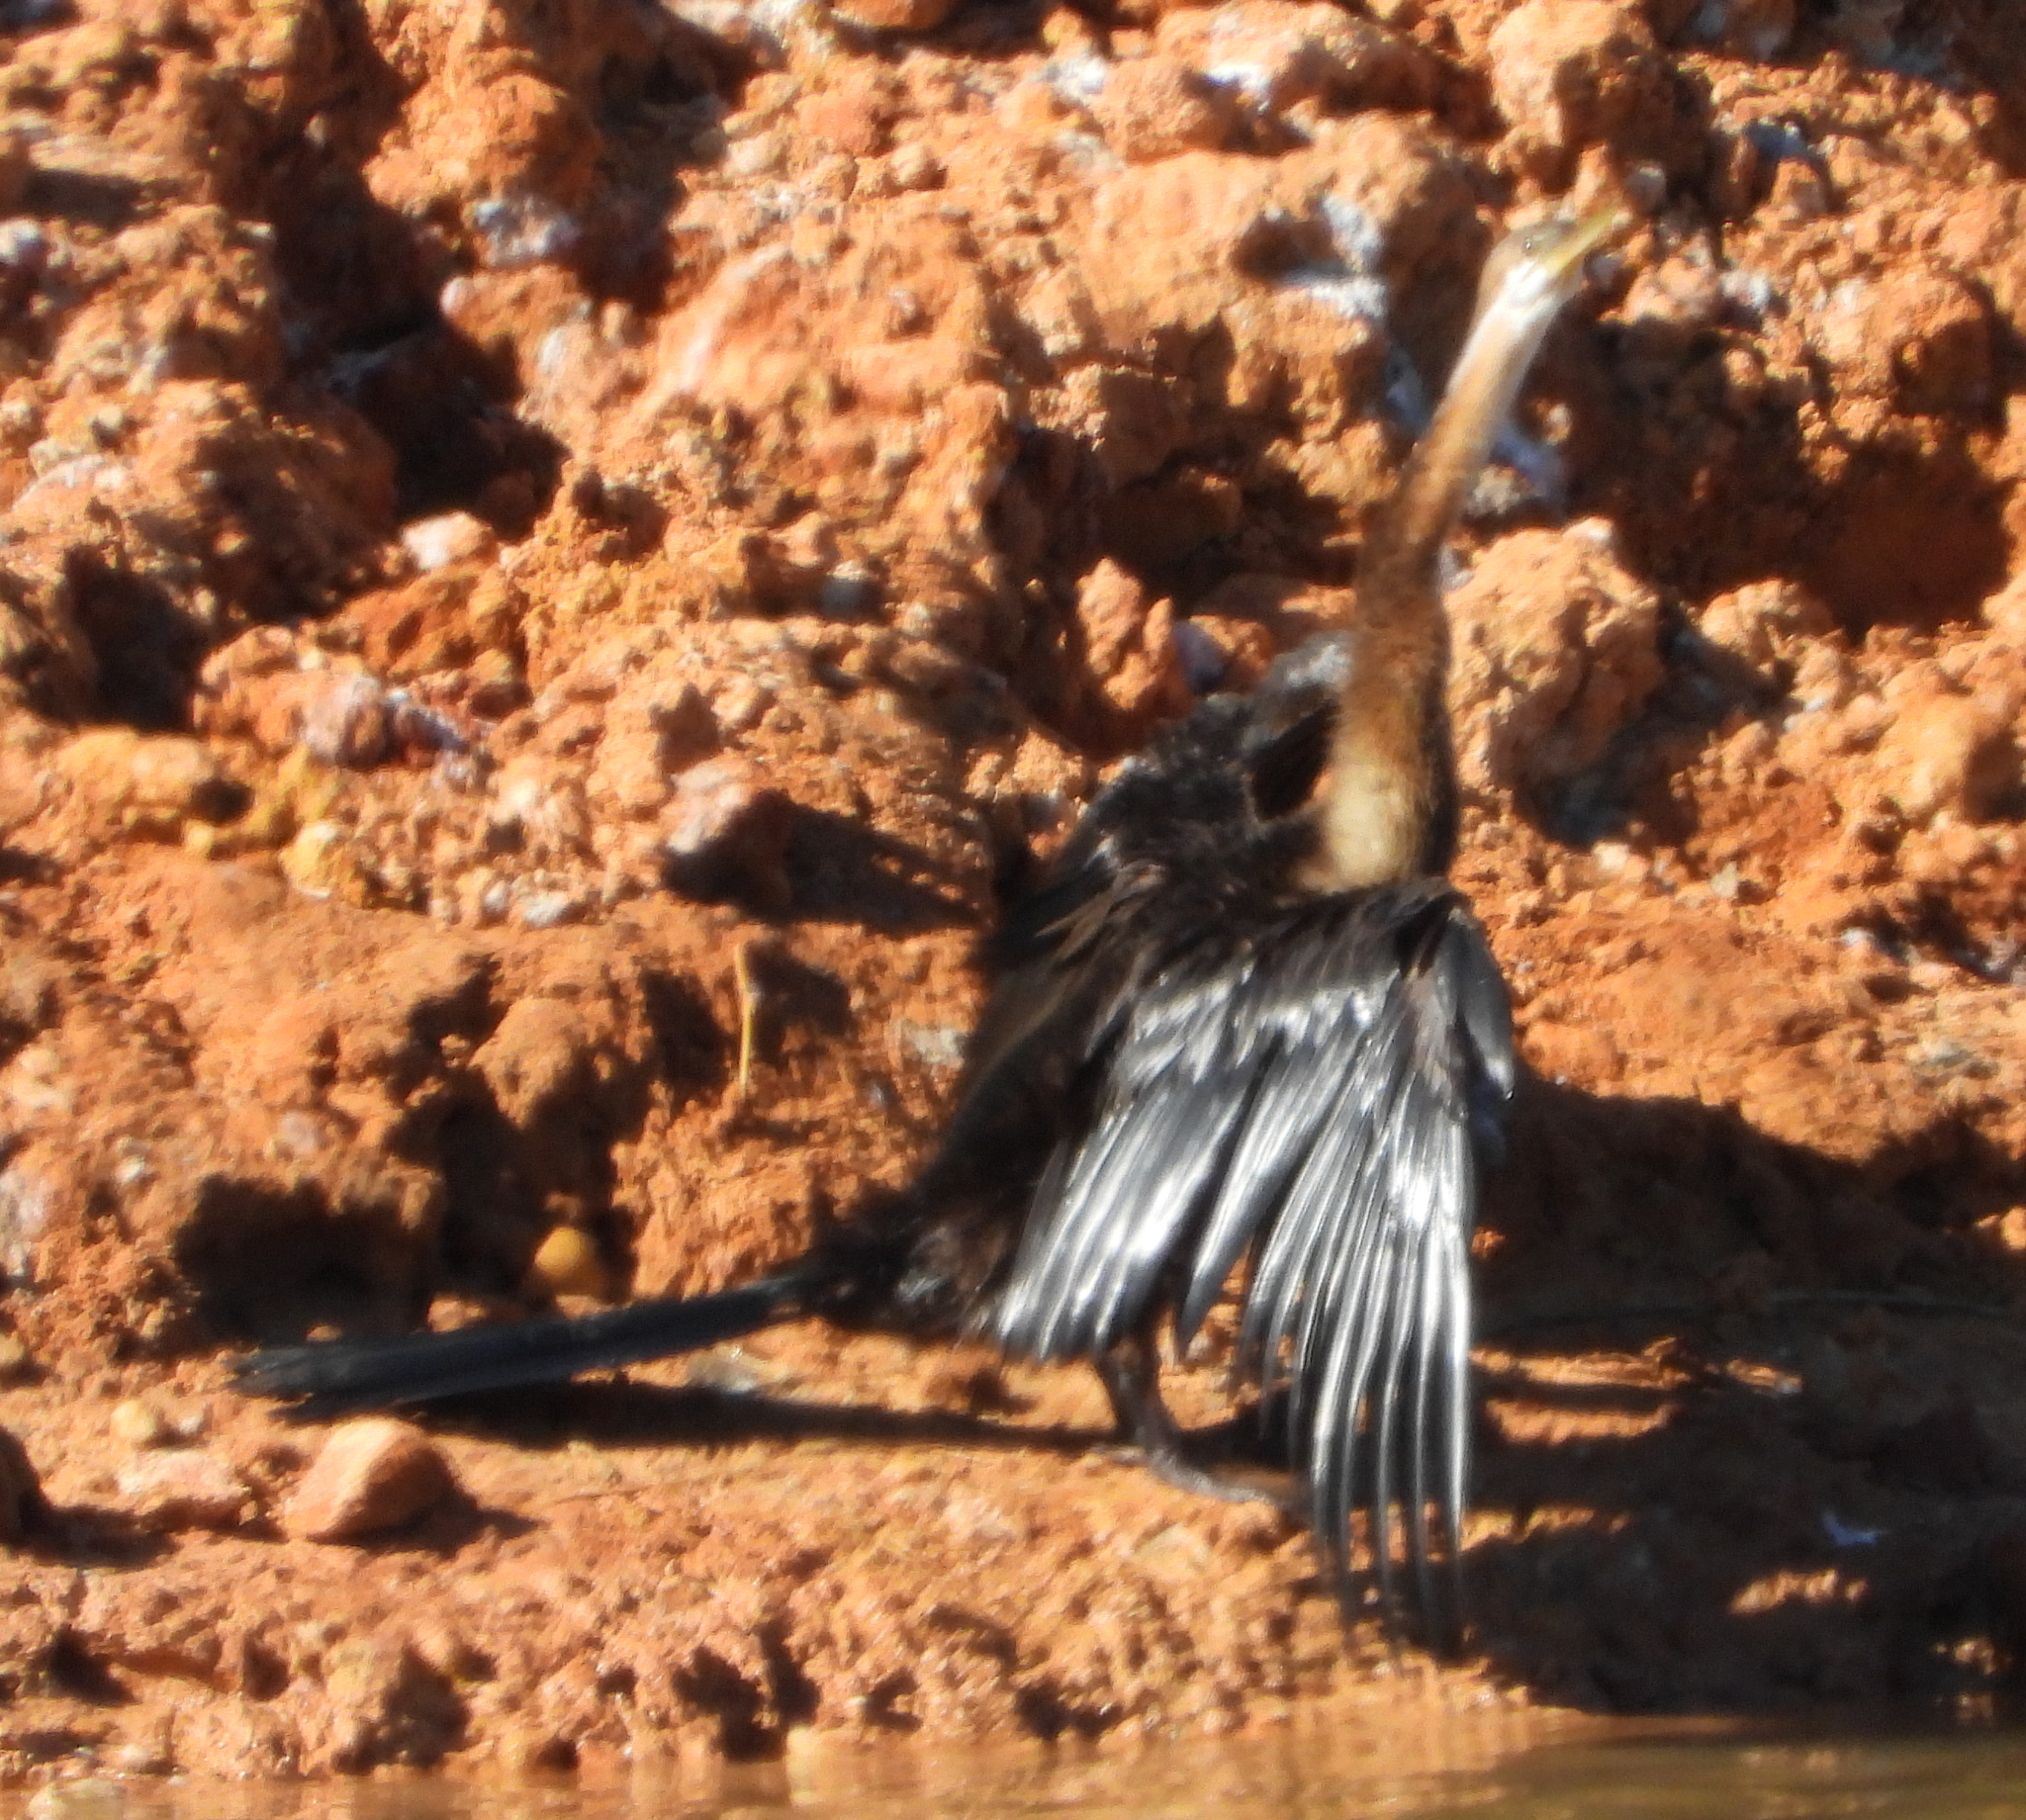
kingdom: Animalia
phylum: Chordata
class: Aves
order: Suliformes
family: Anhingidae
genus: Anhinga
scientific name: Anhinga rufa
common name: African darter
